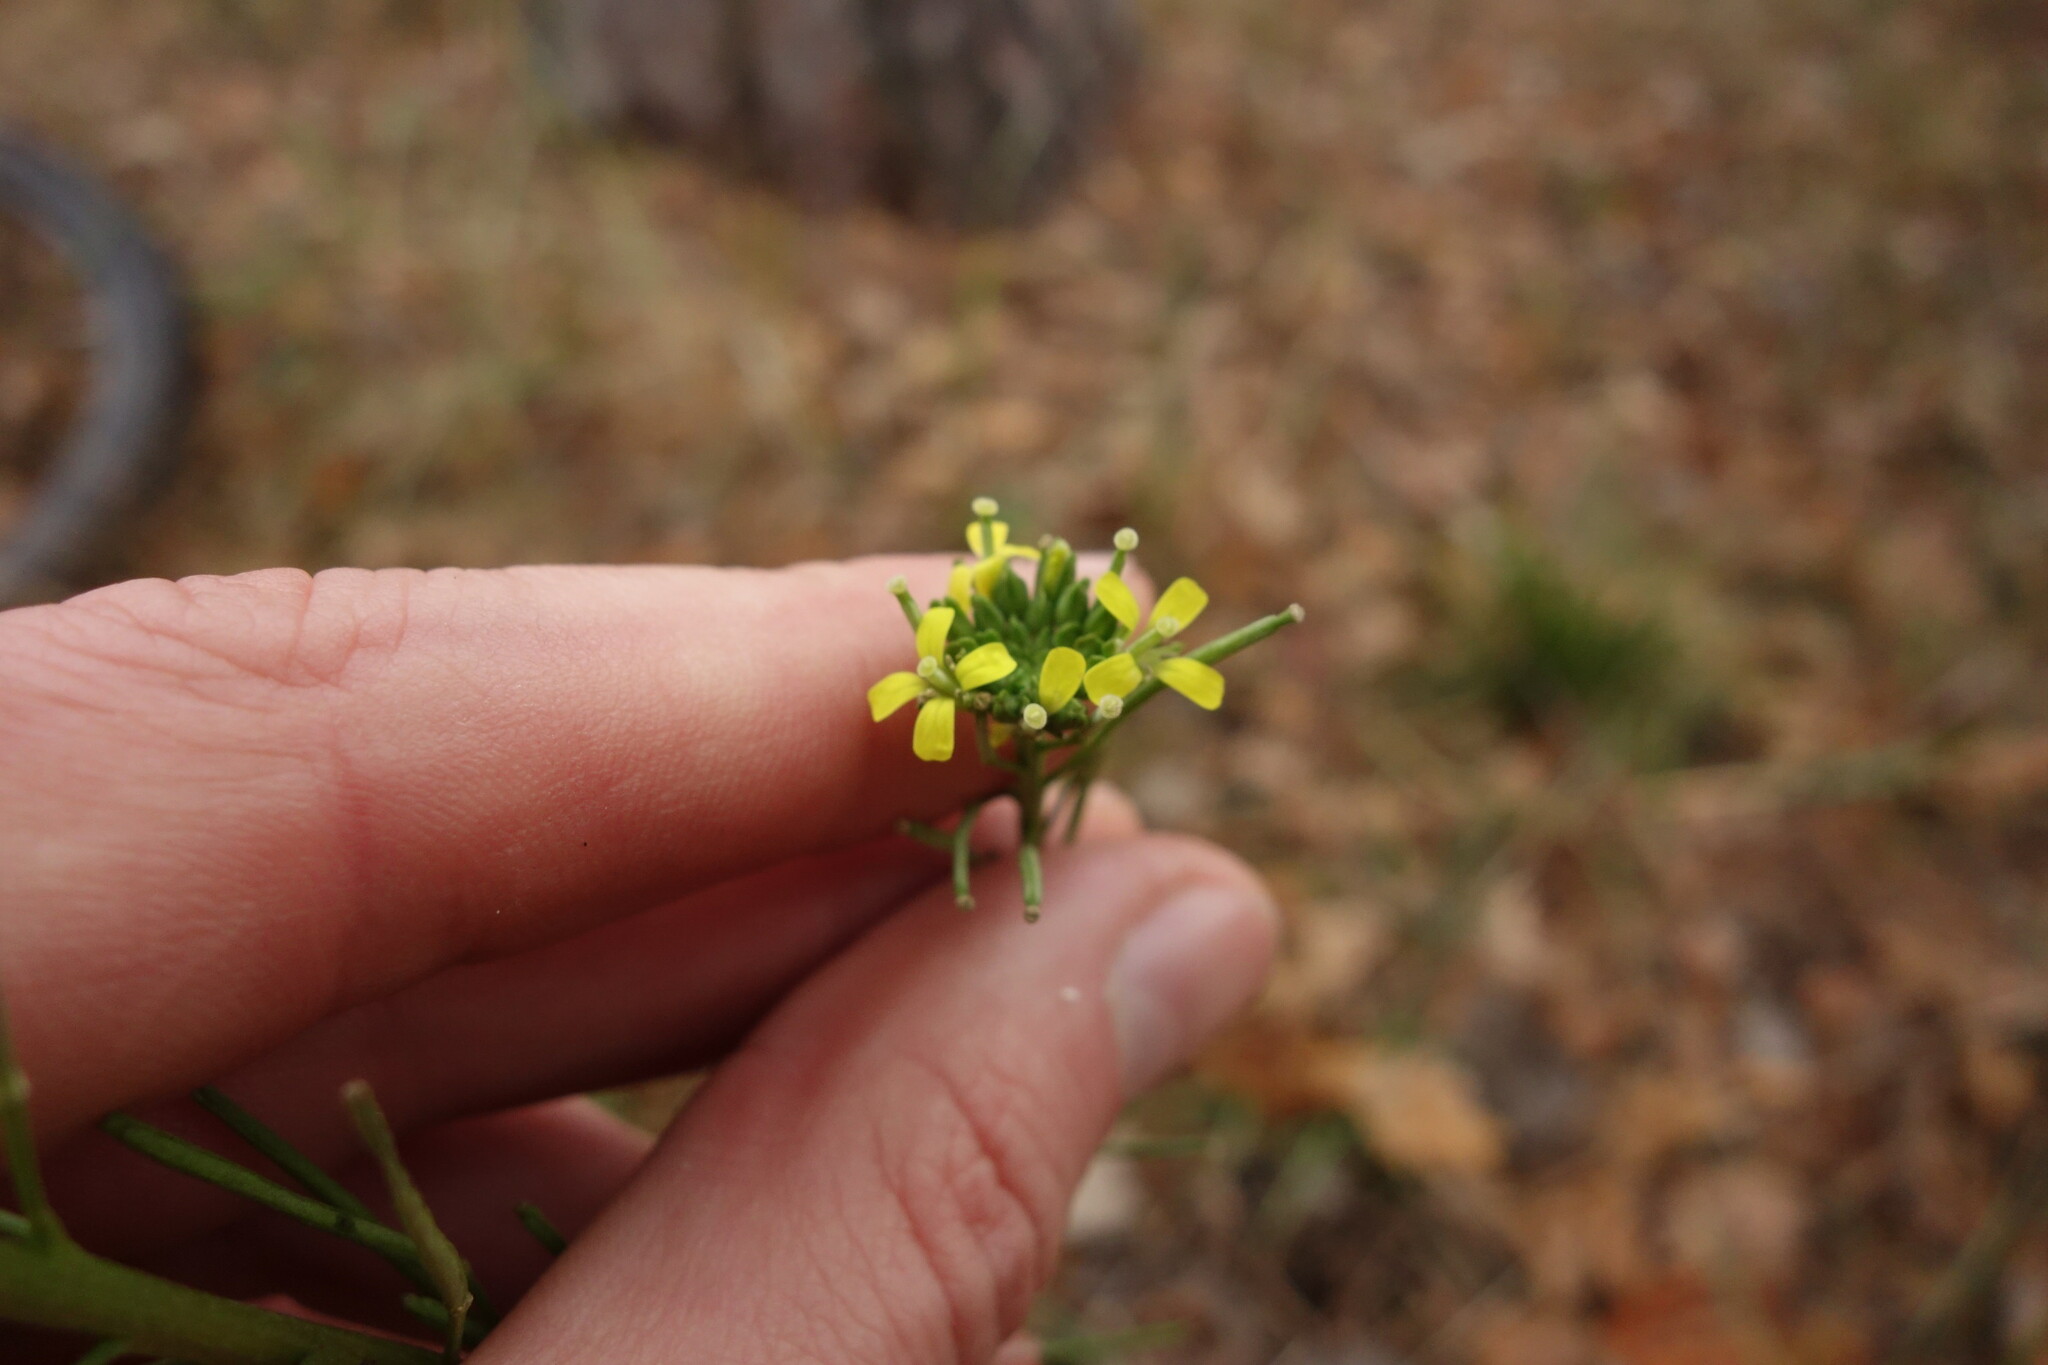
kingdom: Plantae
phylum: Tracheophyta
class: Magnoliopsida
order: Brassicales
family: Brassicaceae
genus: Erysimum
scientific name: Erysimum hieraciifolium
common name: European wallflower
